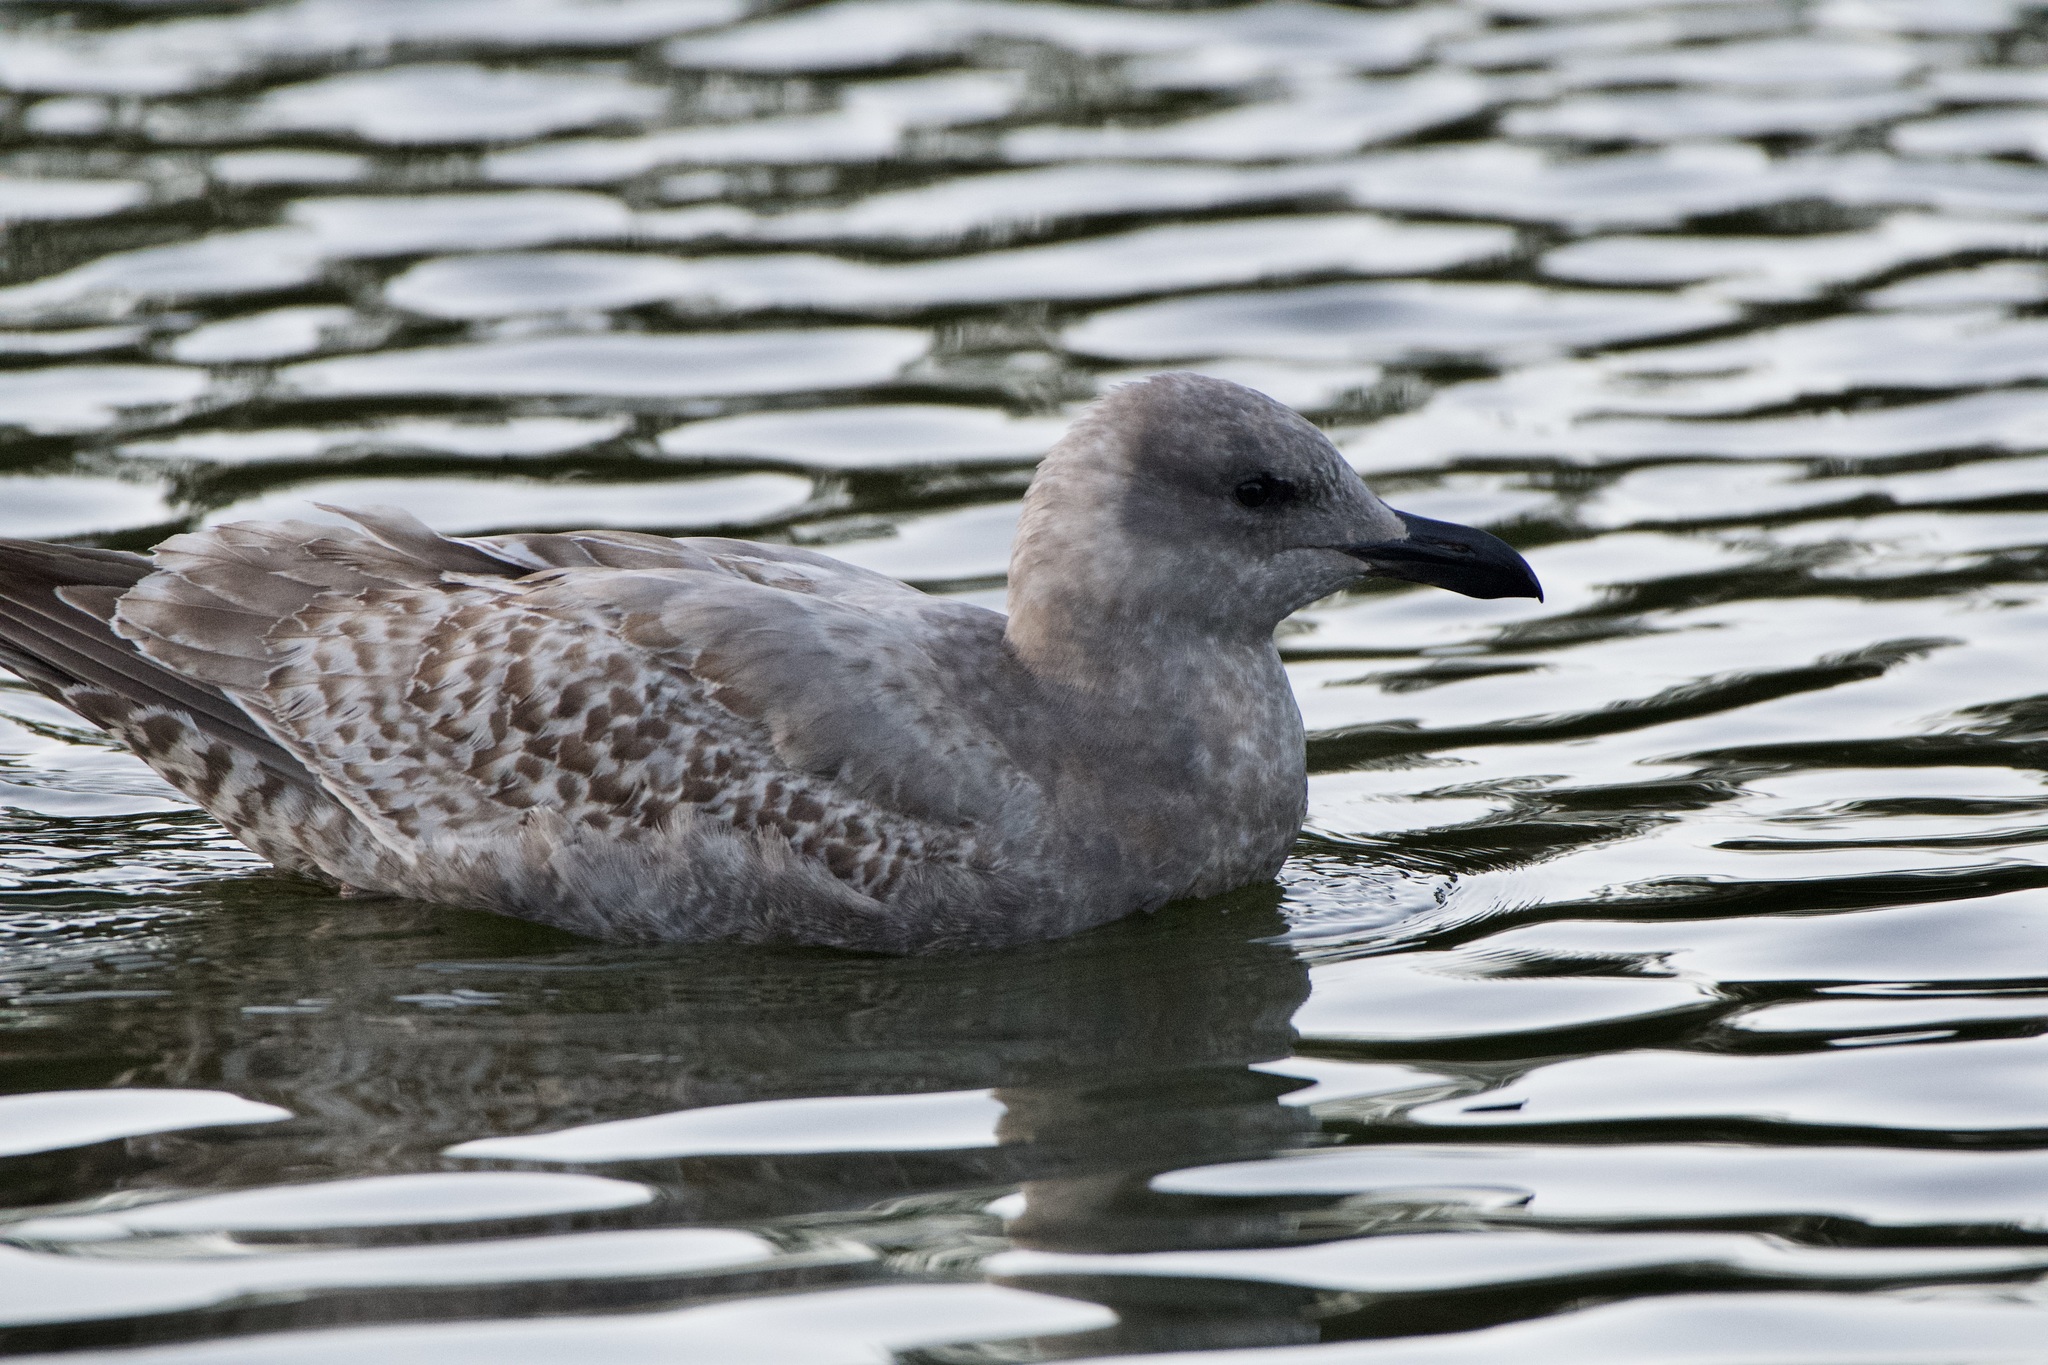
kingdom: Animalia
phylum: Chordata
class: Aves
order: Charadriiformes
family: Laridae
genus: Larus
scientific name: Larus
